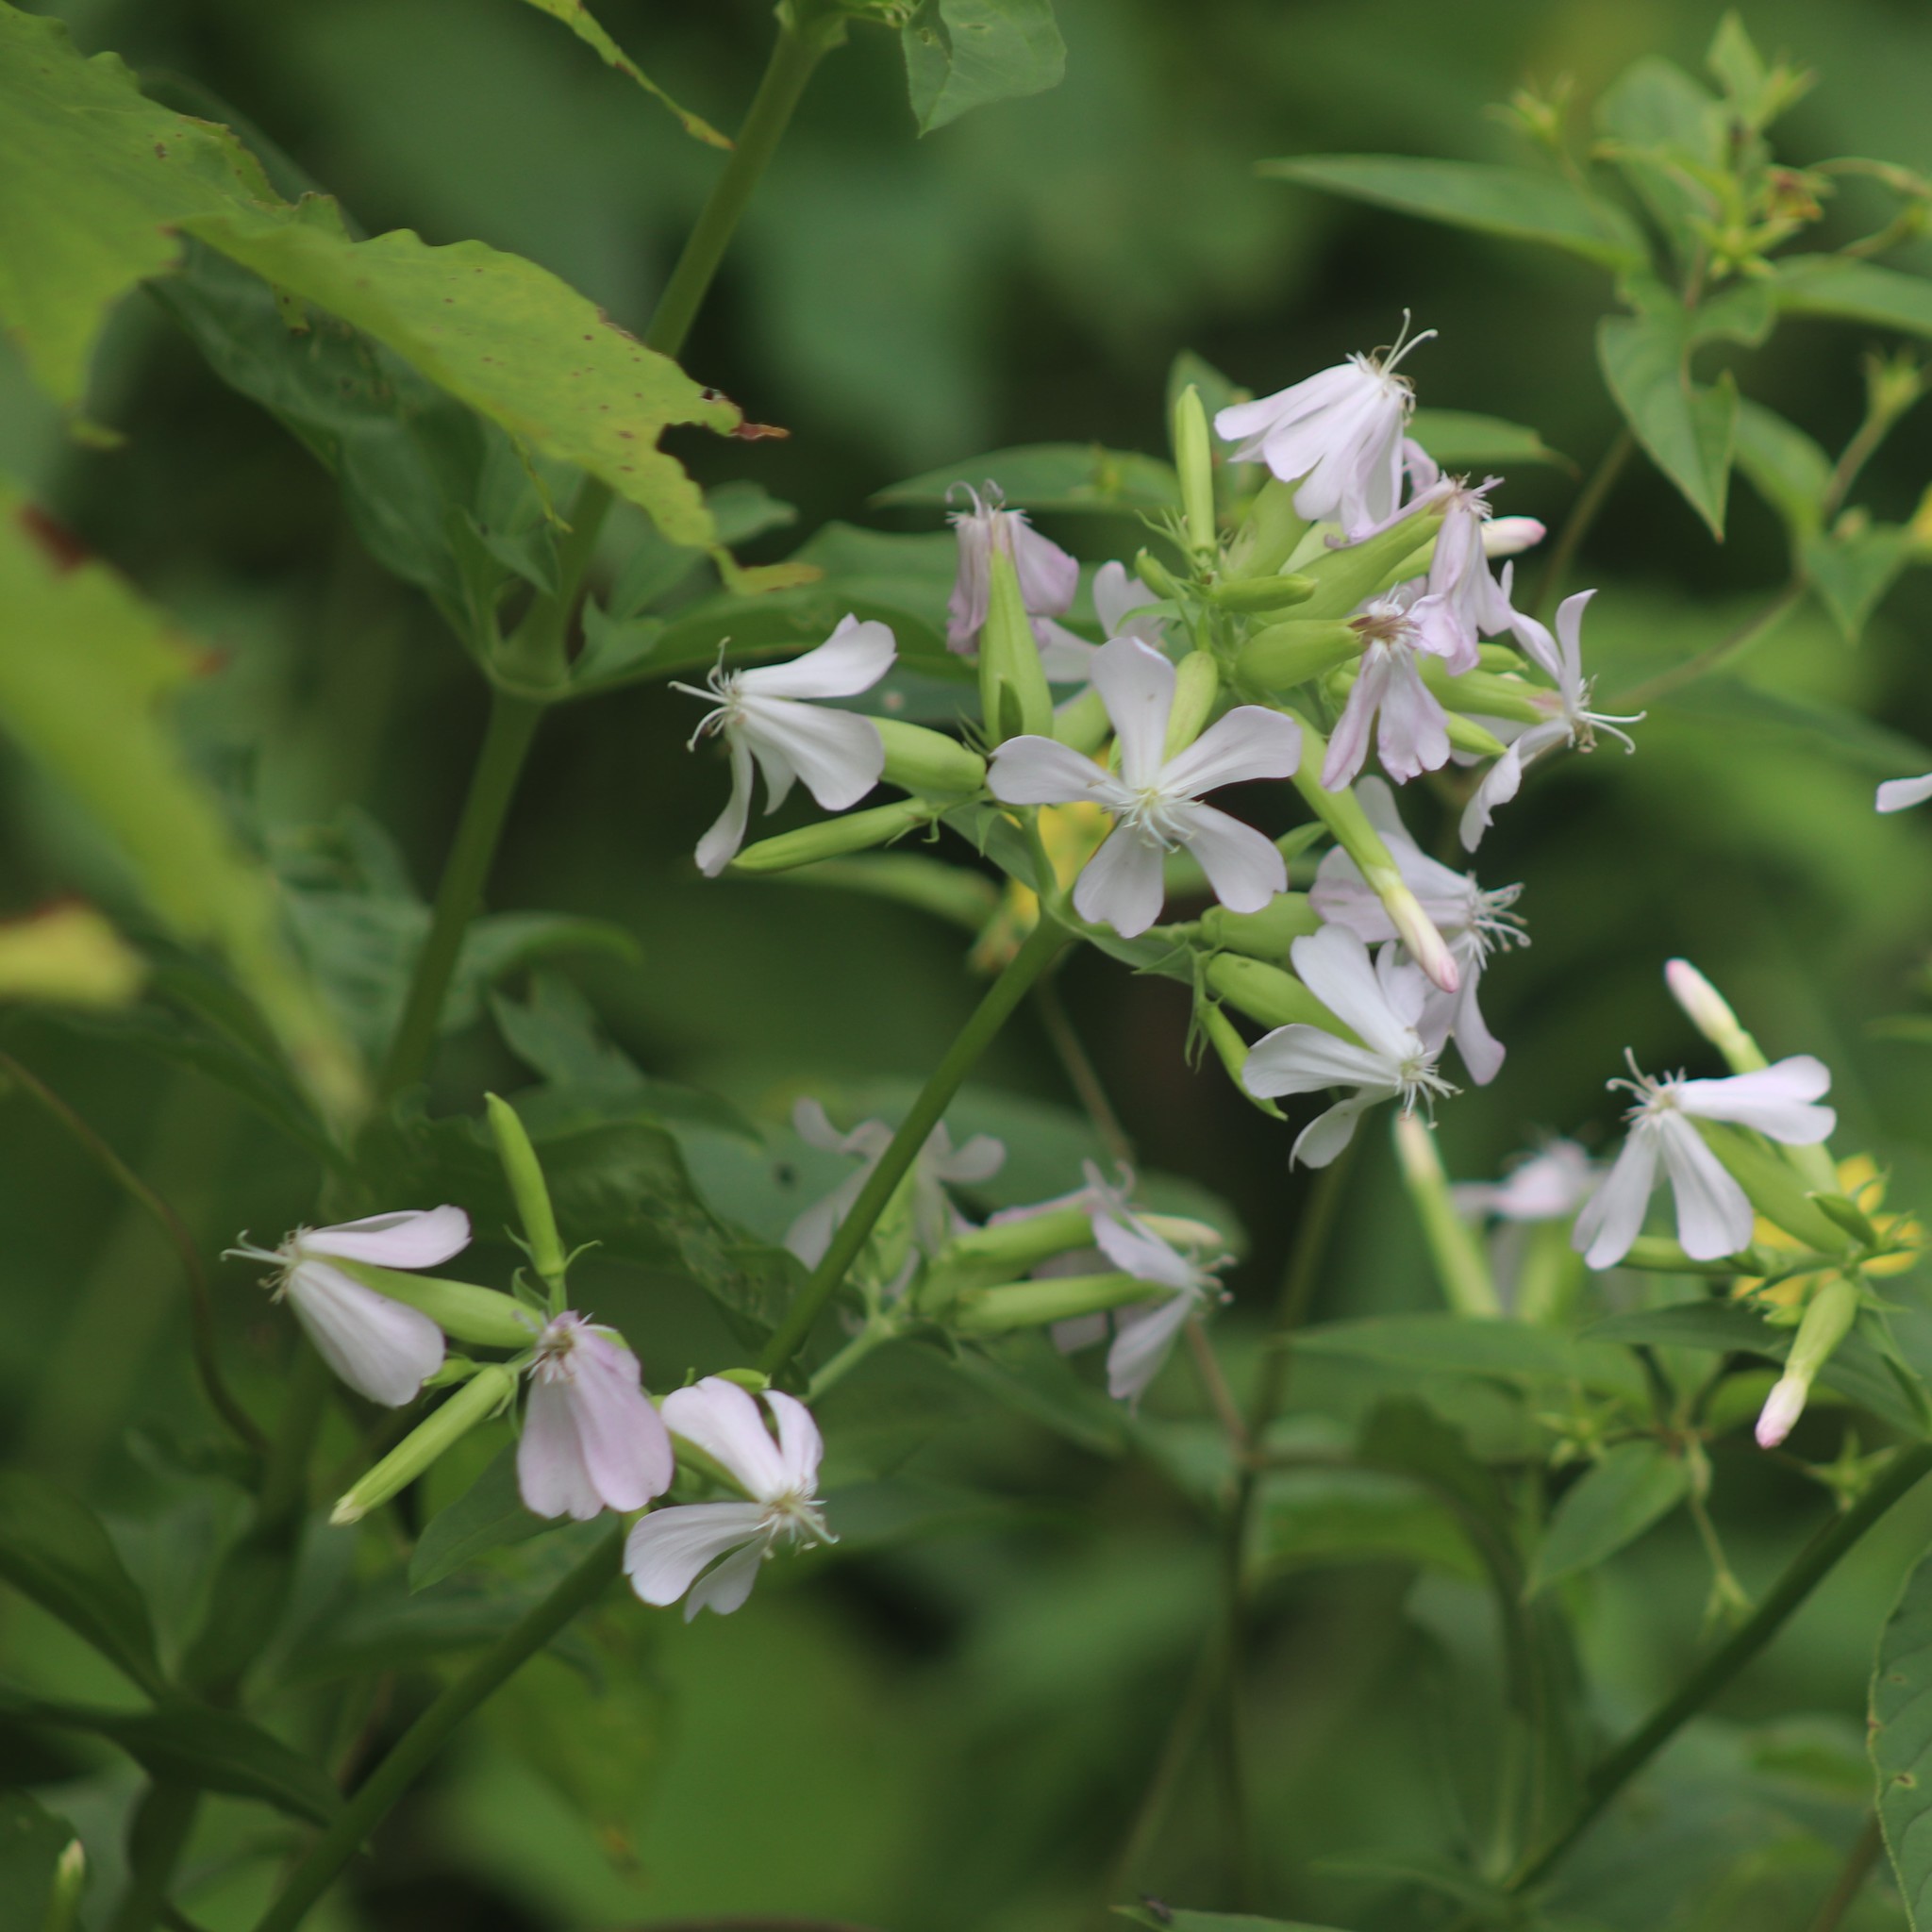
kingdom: Plantae
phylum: Tracheophyta
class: Magnoliopsida
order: Caryophyllales
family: Caryophyllaceae
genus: Saponaria
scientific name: Saponaria officinalis
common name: Soapwort
